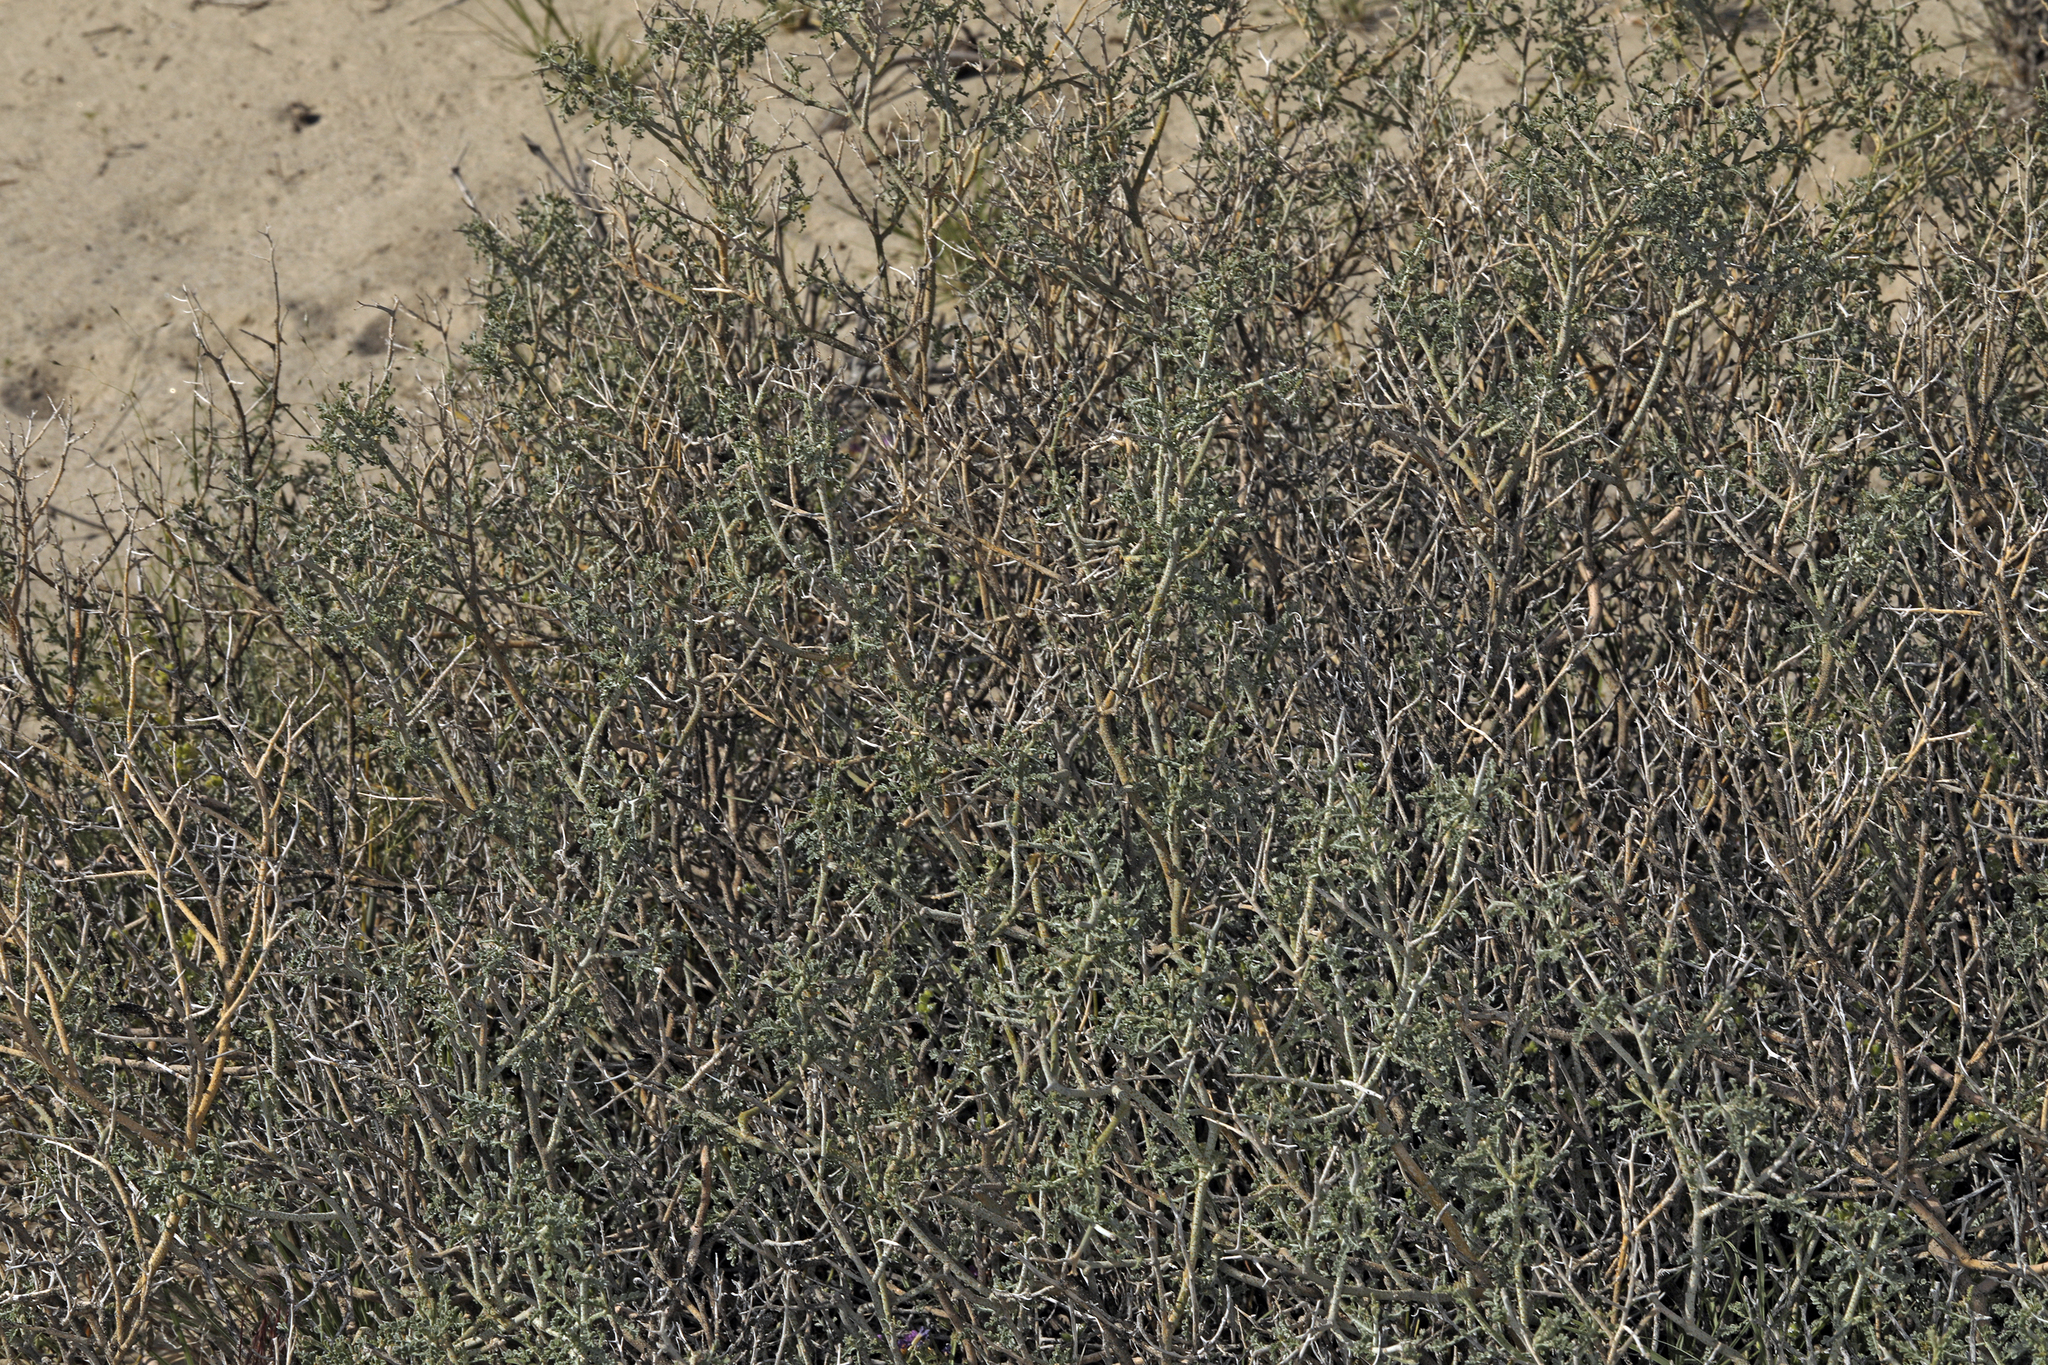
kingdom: Plantae
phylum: Tracheophyta
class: Magnoliopsida
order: Fabales
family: Fabaceae
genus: Psorothamnus
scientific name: Psorothamnus polydenius
